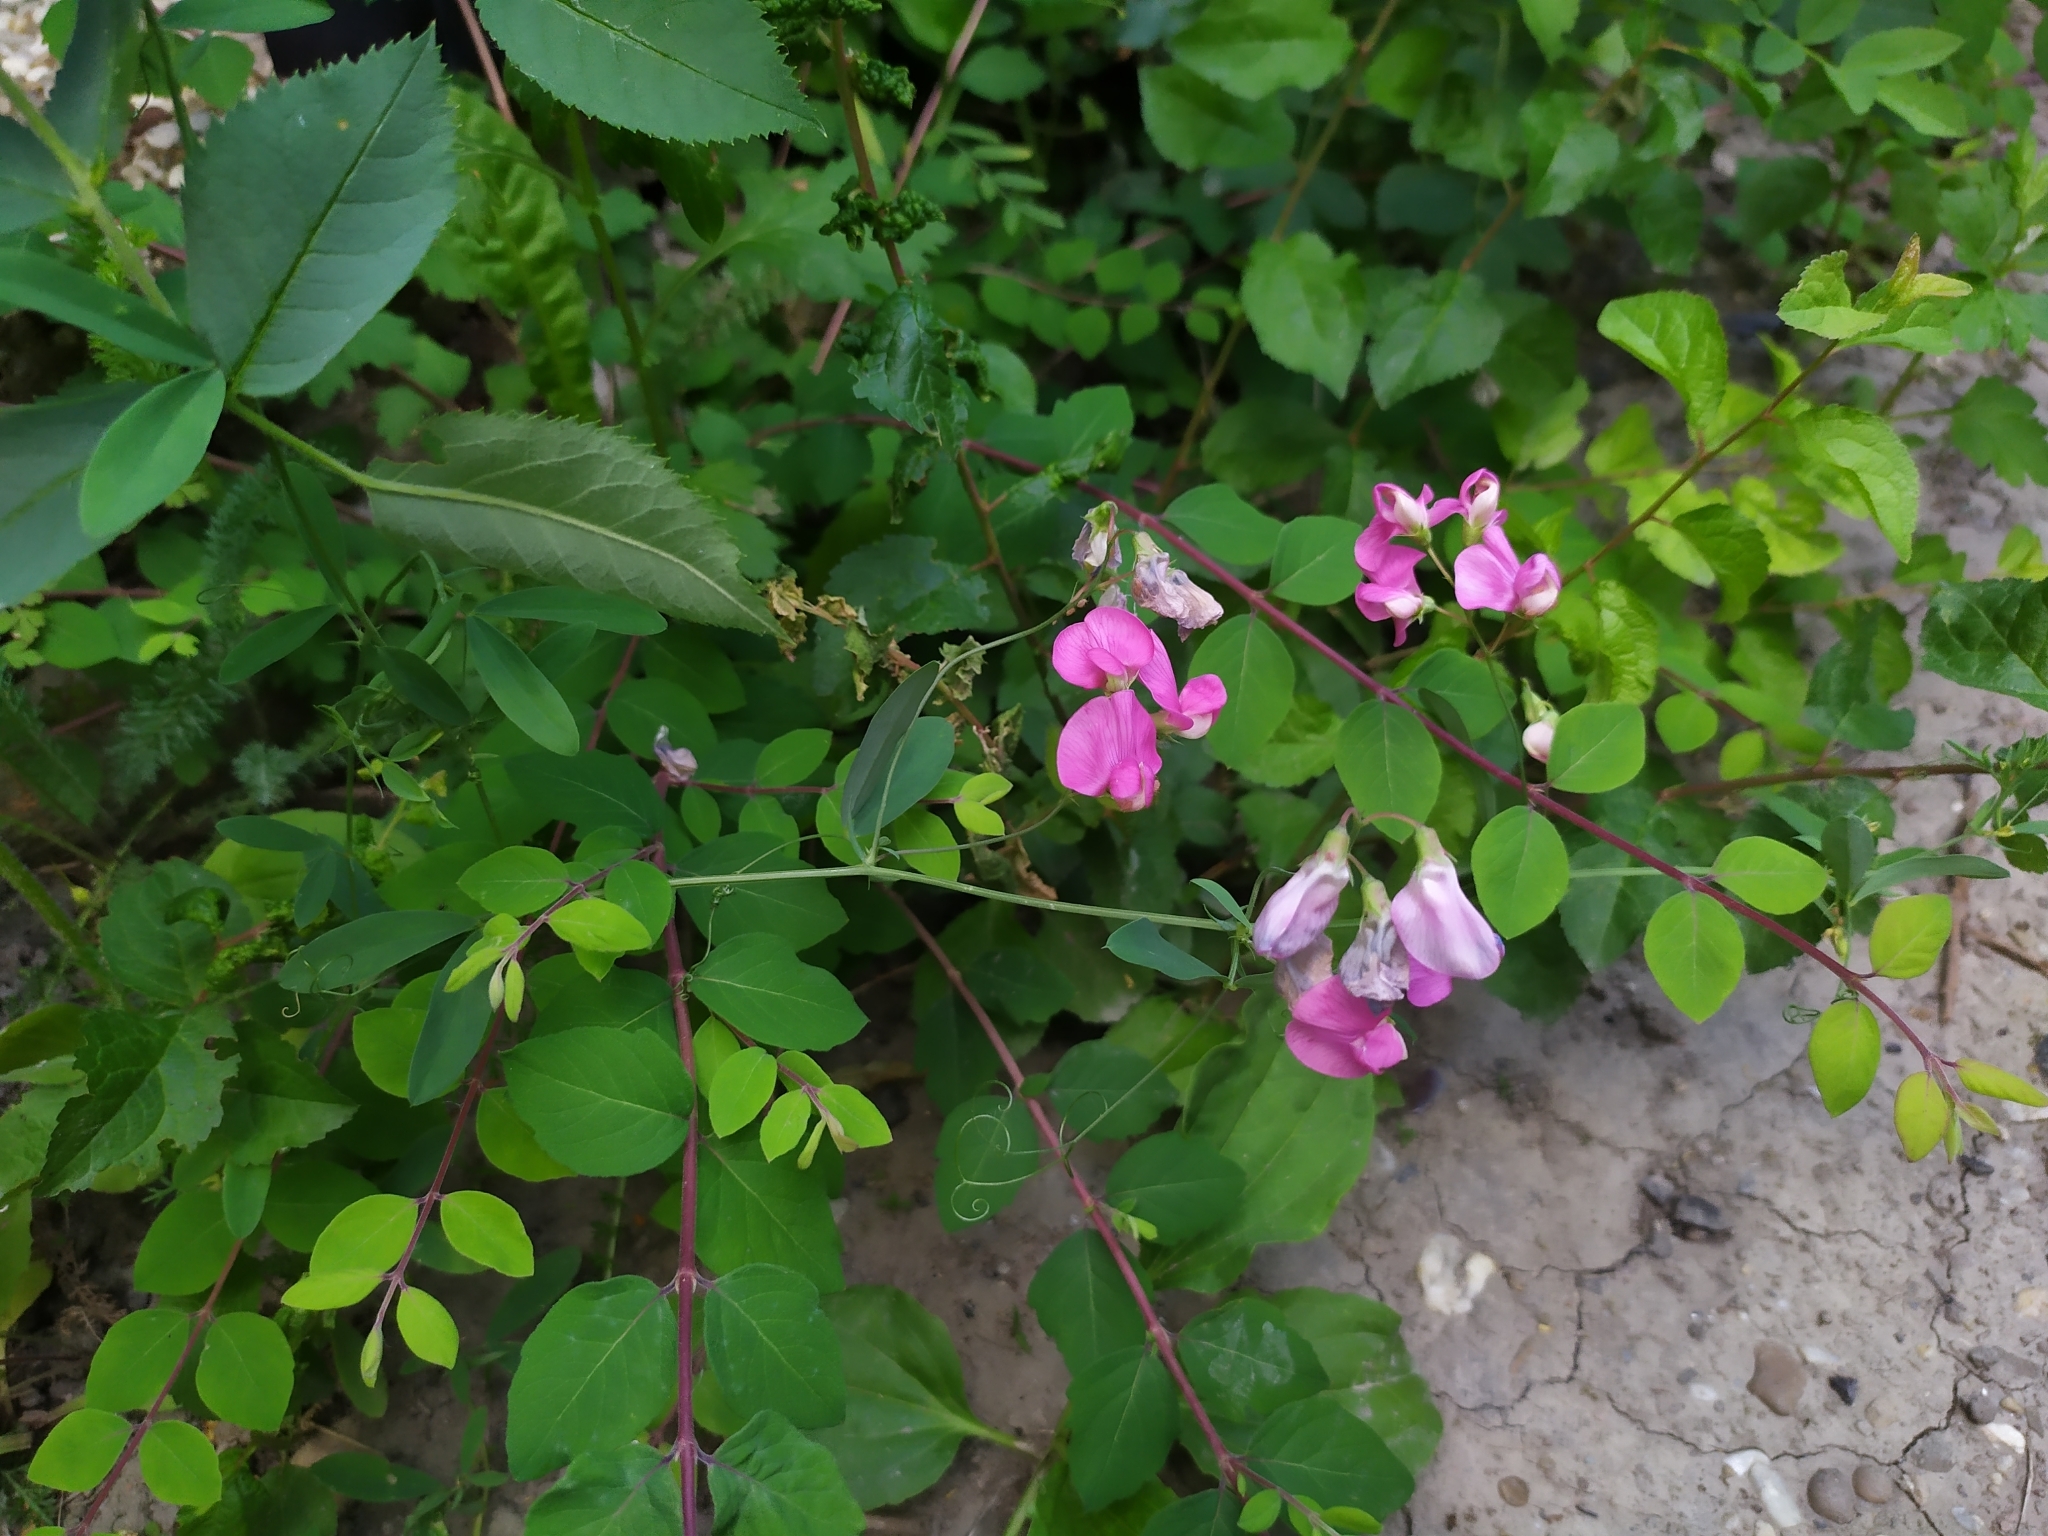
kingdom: Plantae
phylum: Tracheophyta
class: Magnoliopsida
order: Fabales
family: Fabaceae
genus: Lathyrus
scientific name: Lathyrus tuberosus
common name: Tuberous pea
